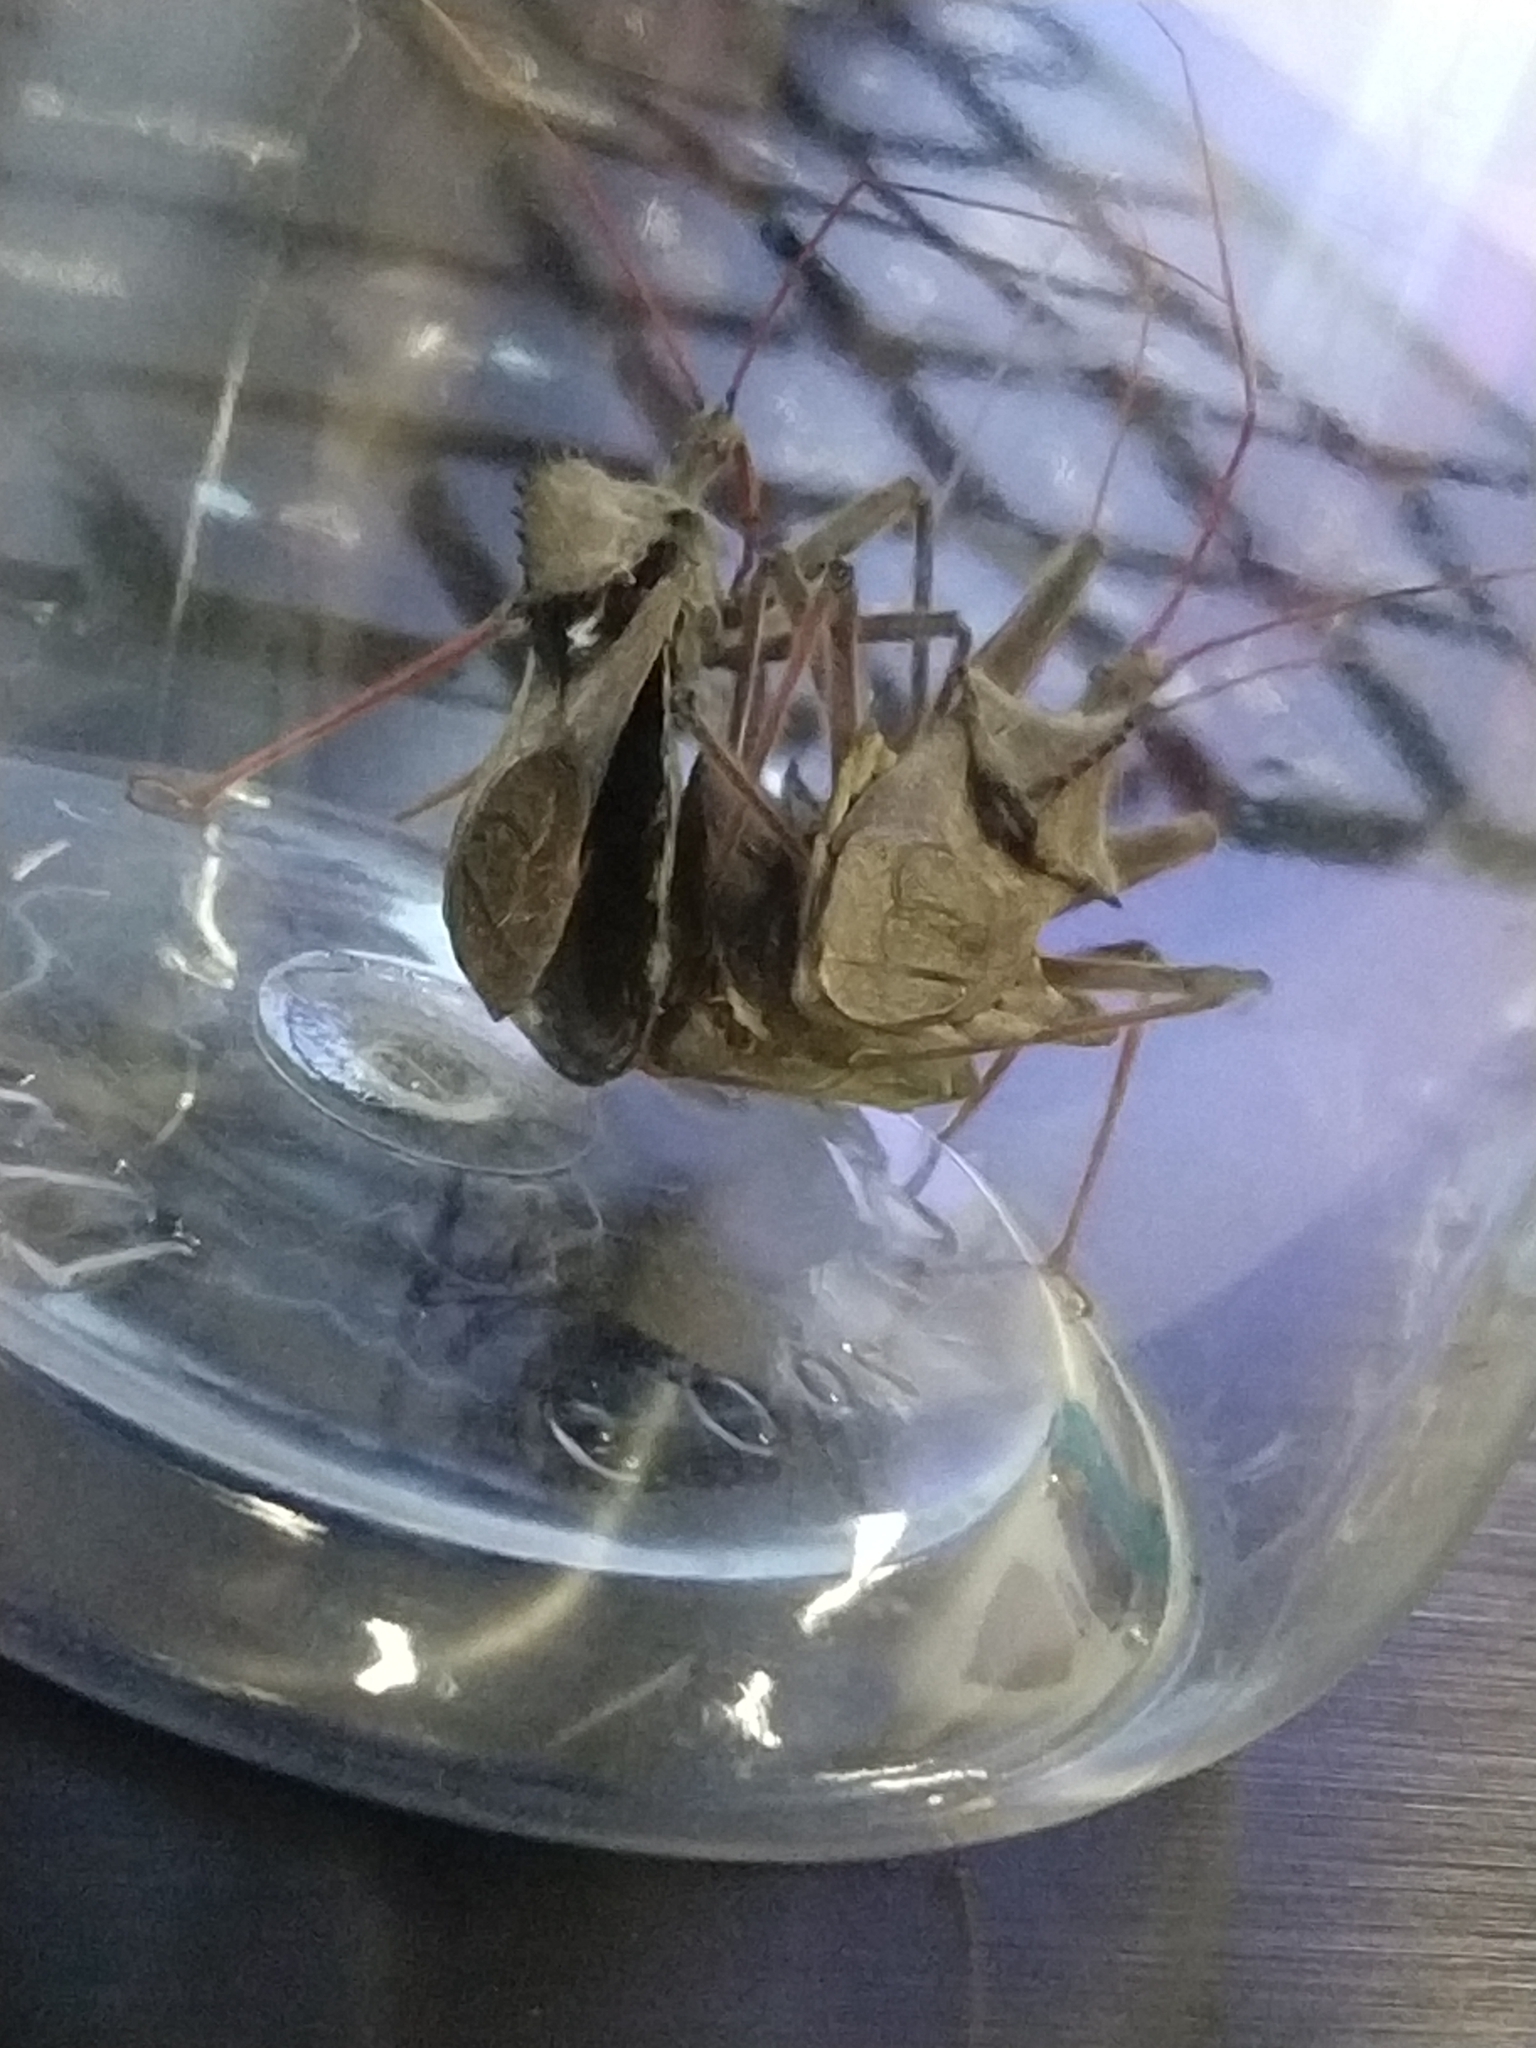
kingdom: Animalia
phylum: Arthropoda
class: Insecta
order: Hemiptera
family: Reduviidae
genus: Arilus
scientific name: Arilus cristatus
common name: North american wheel bug
